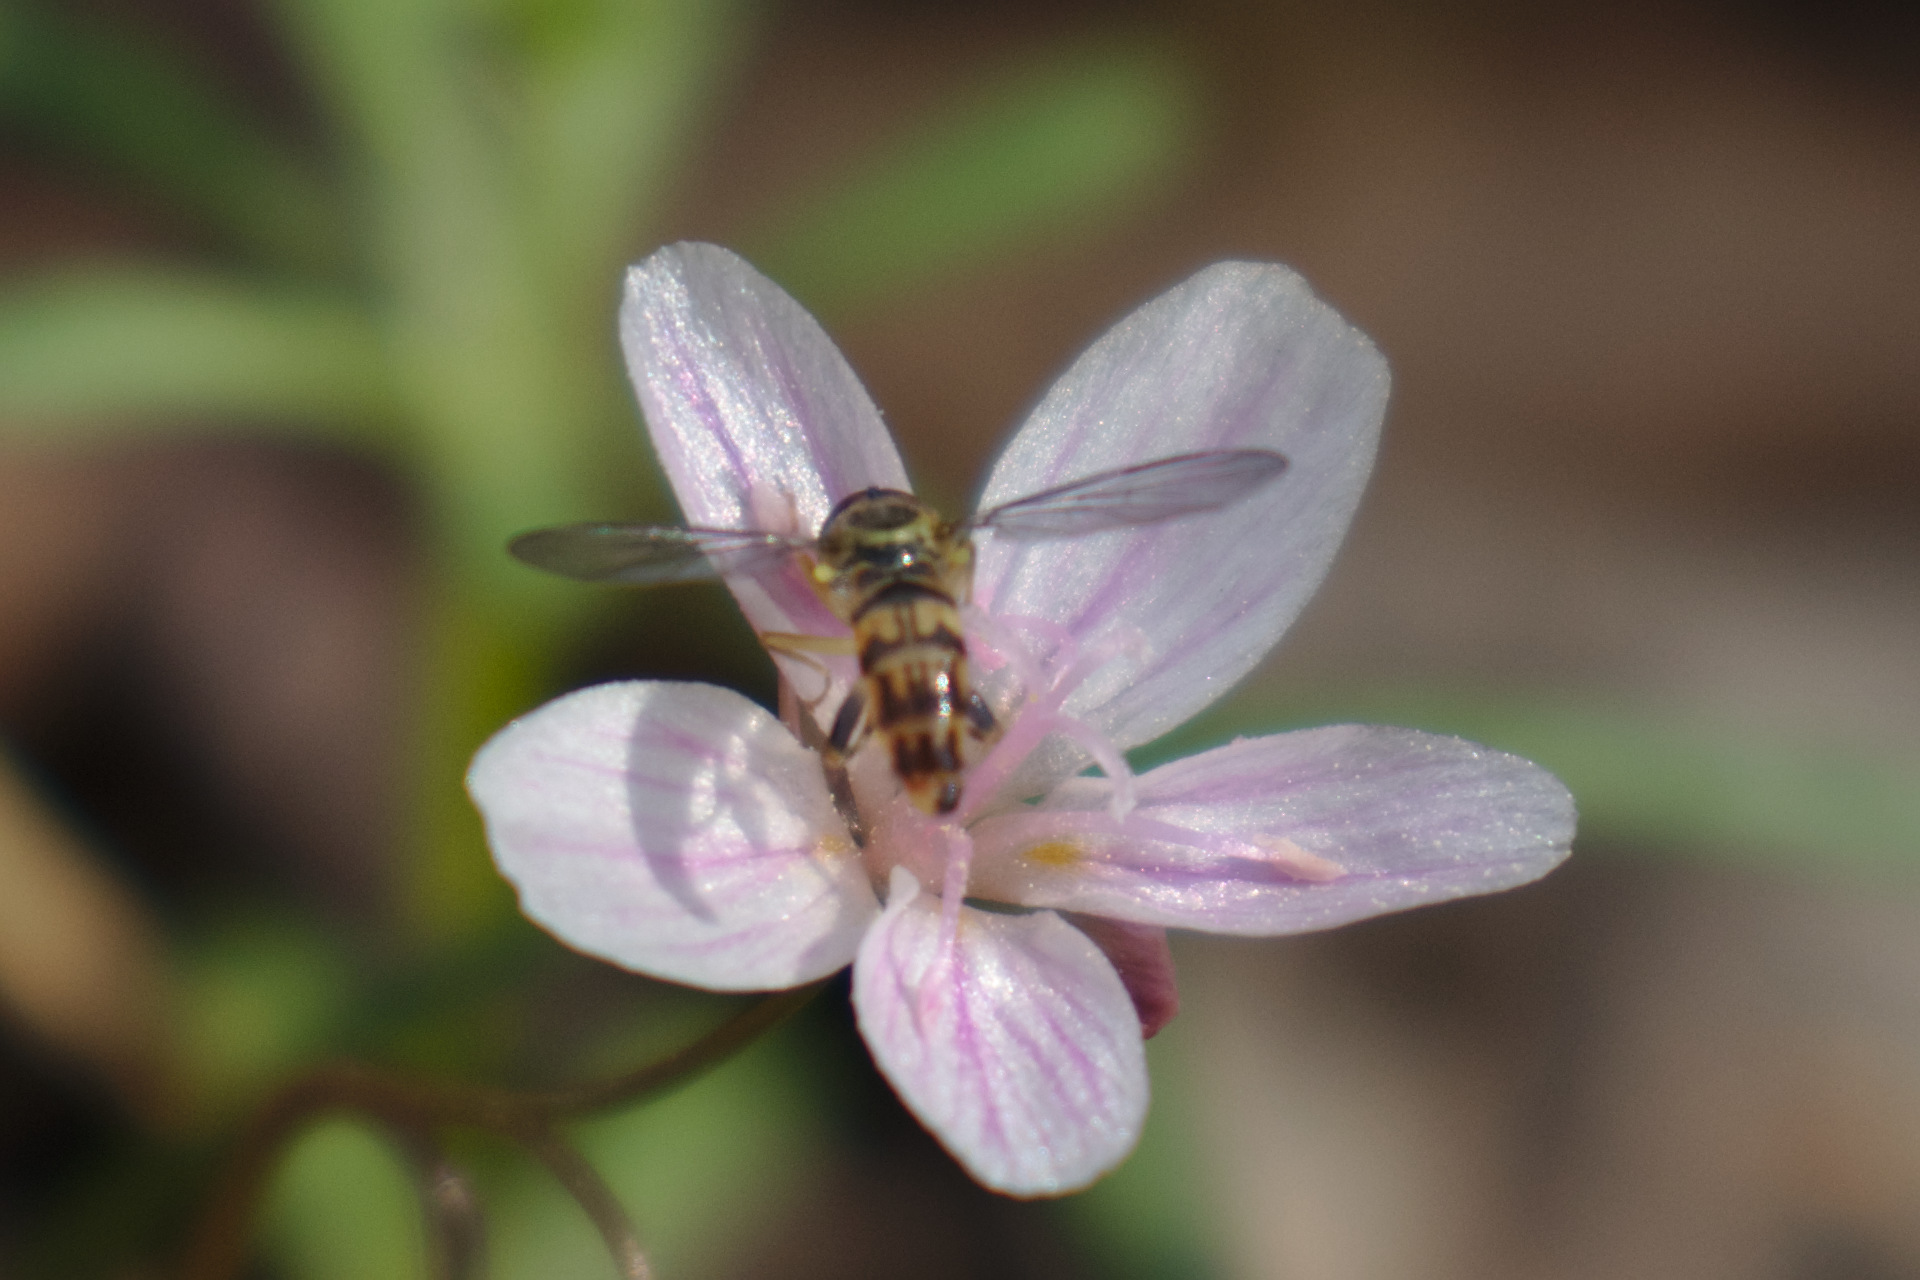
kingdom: Animalia
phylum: Arthropoda
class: Insecta
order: Diptera
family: Syrphidae
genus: Toxomerus
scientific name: Toxomerus geminatus
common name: Eastern calligrapher
